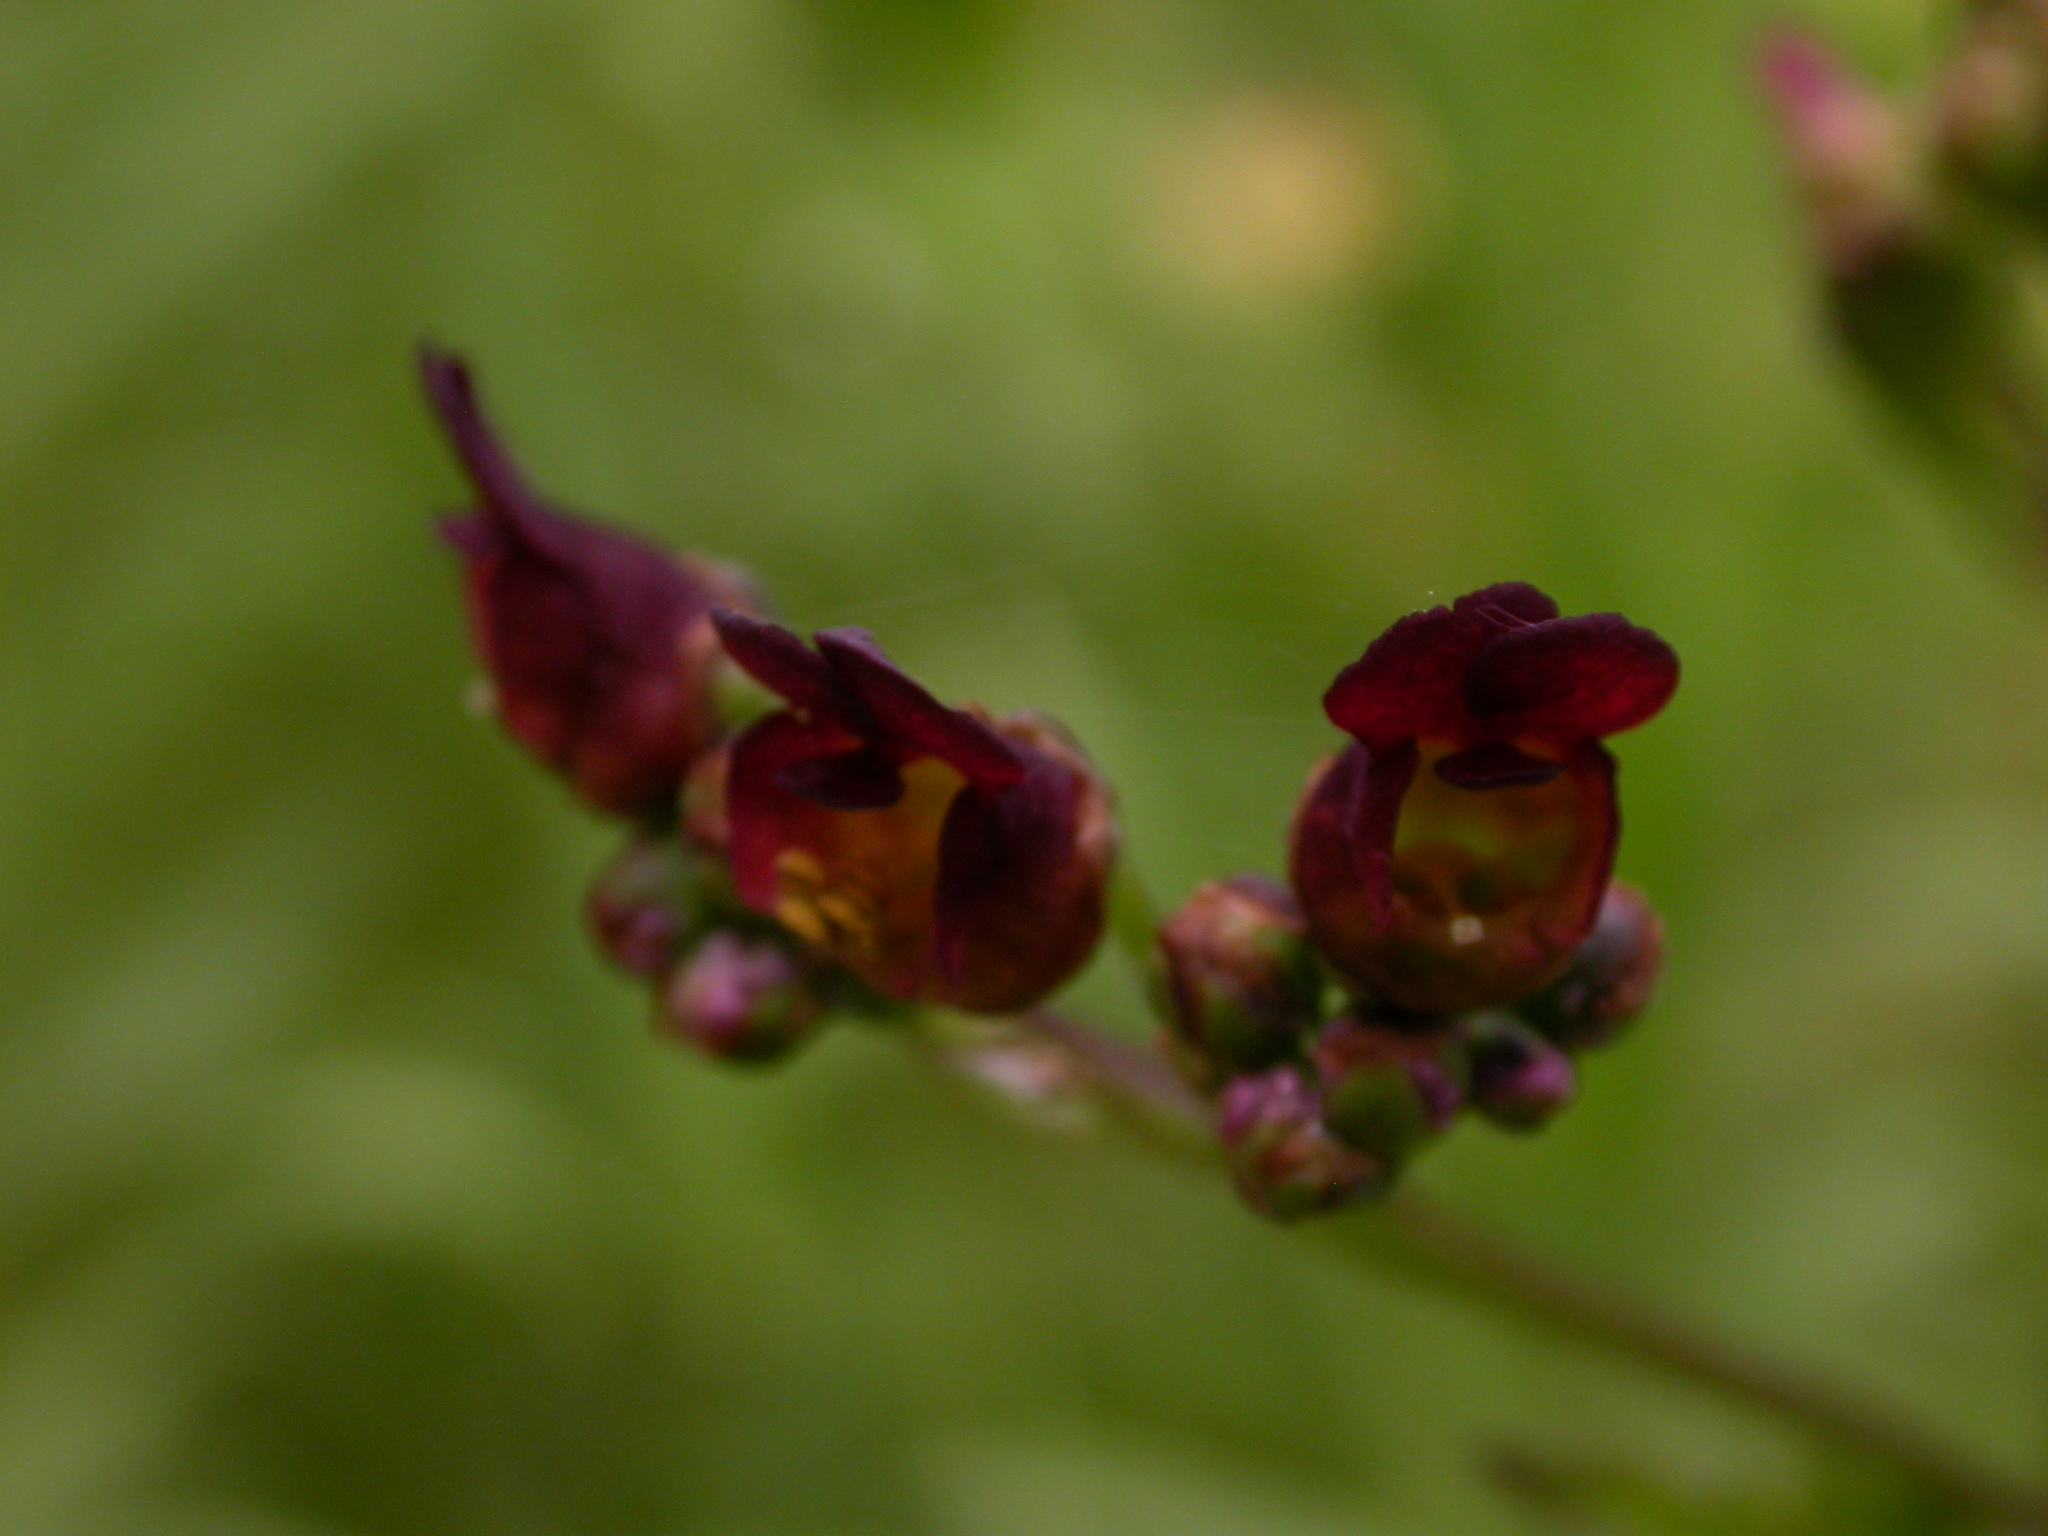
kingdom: Plantae
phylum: Tracheophyta
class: Magnoliopsida
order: Lamiales
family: Scrophulariaceae
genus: Scrophularia
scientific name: Scrophularia auriculata
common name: Water betony
